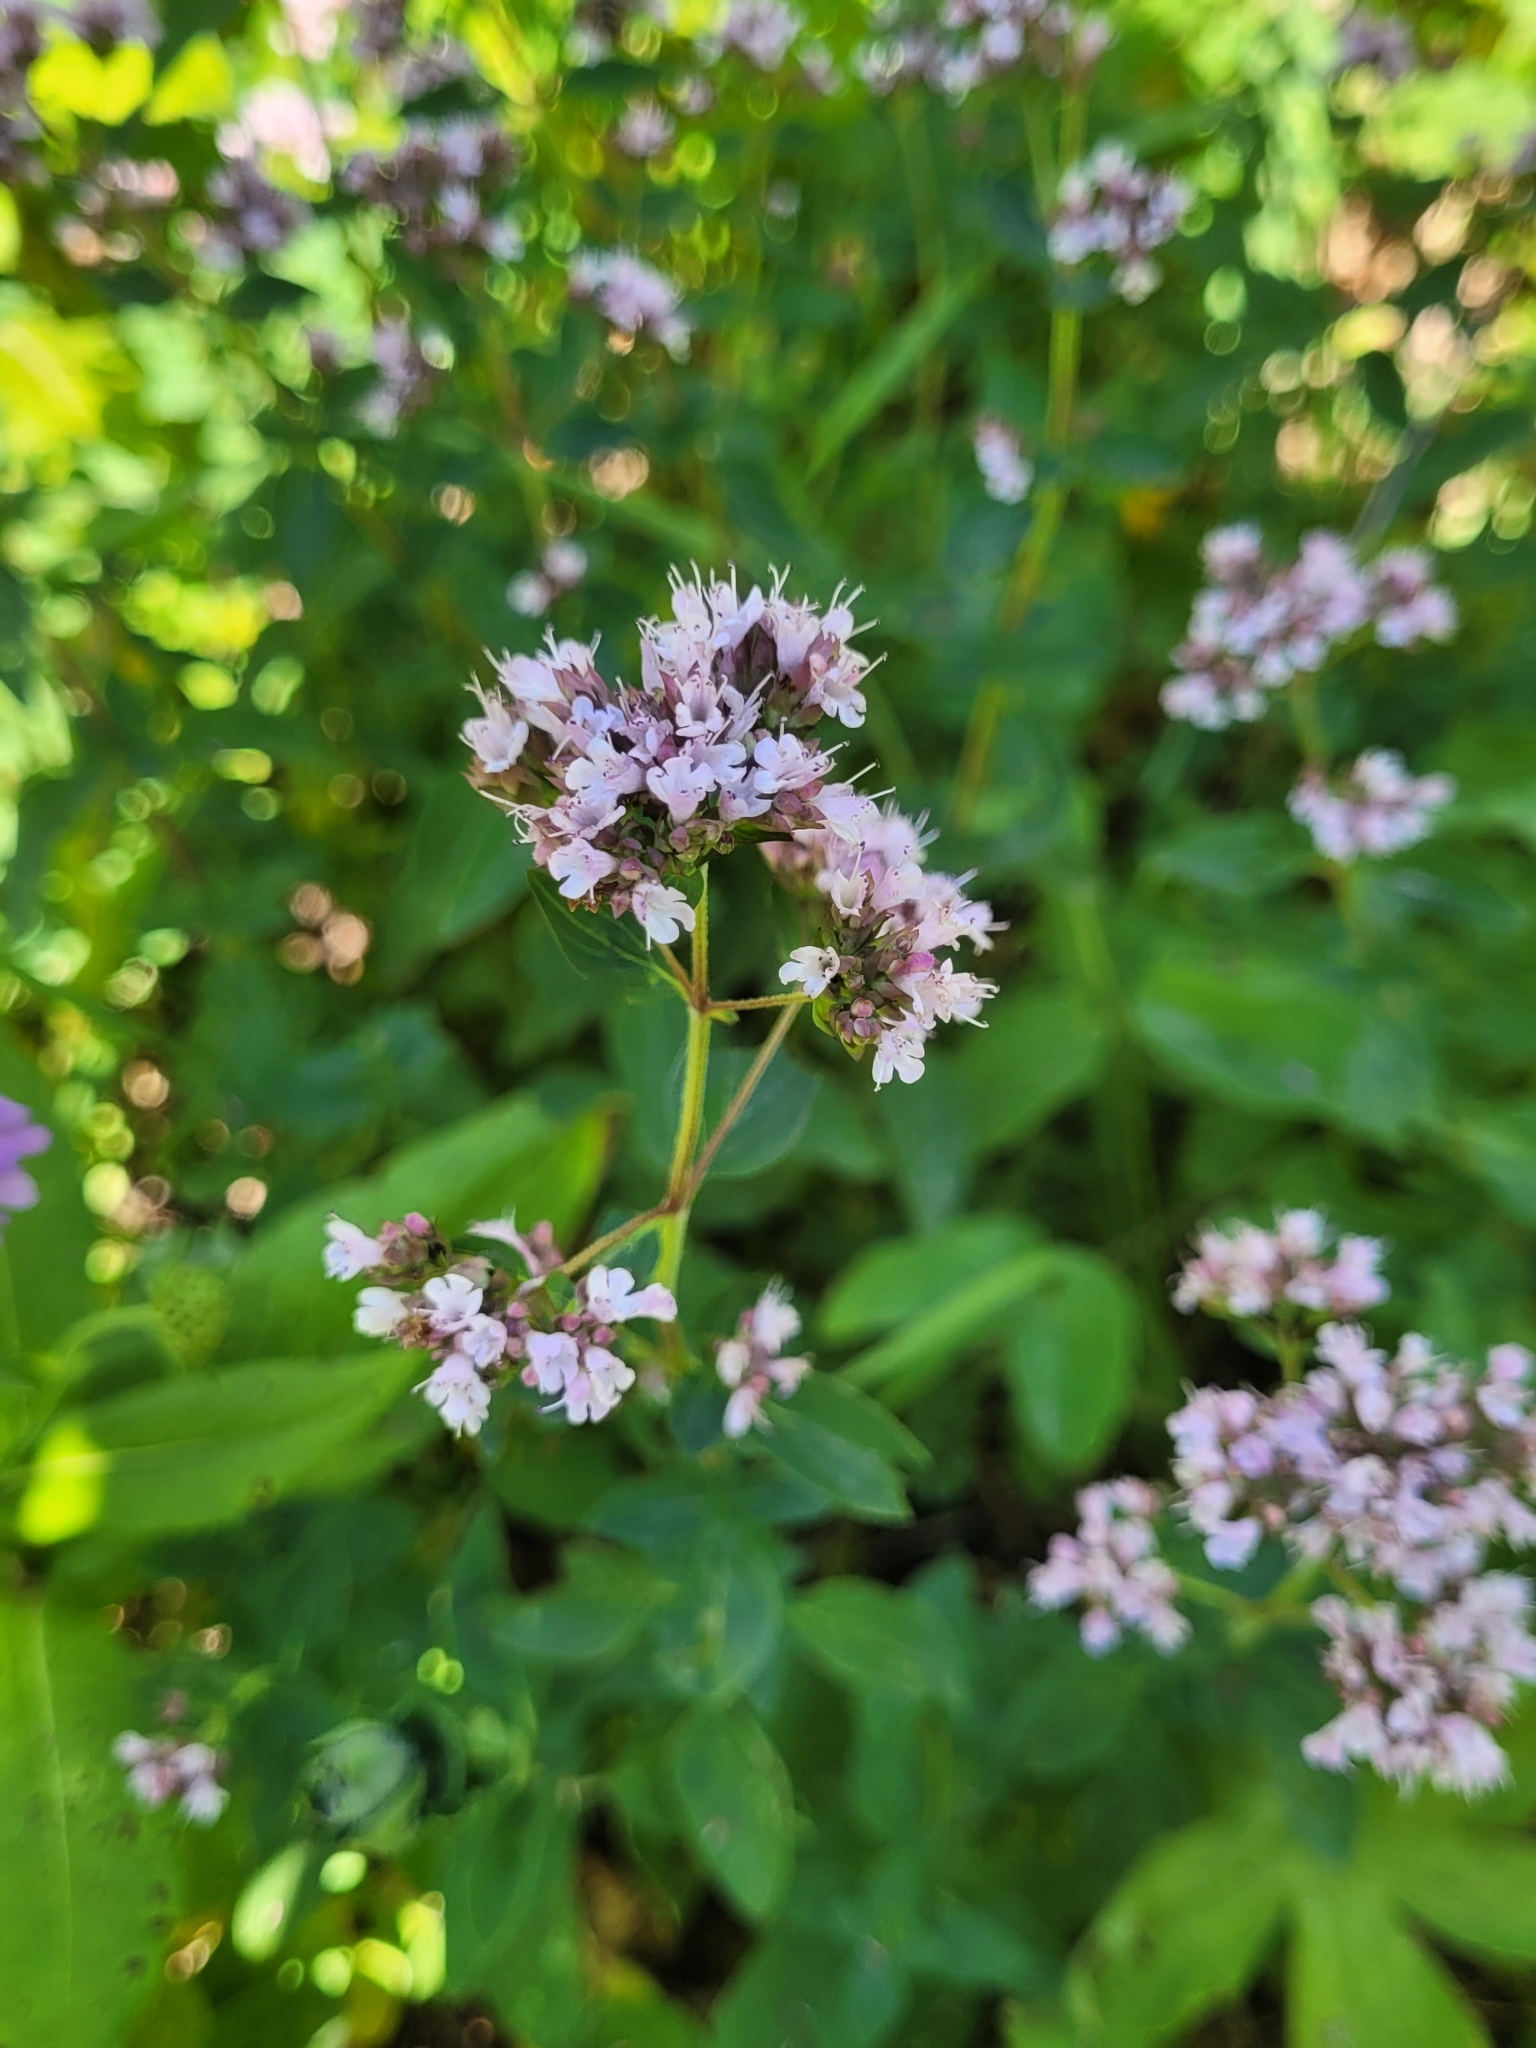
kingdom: Plantae
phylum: Tracheophyta
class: Magnoliopsida
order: Lamiales
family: Lamiaceae
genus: Origanum
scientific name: Origanum vulgare
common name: Wild marjoram
